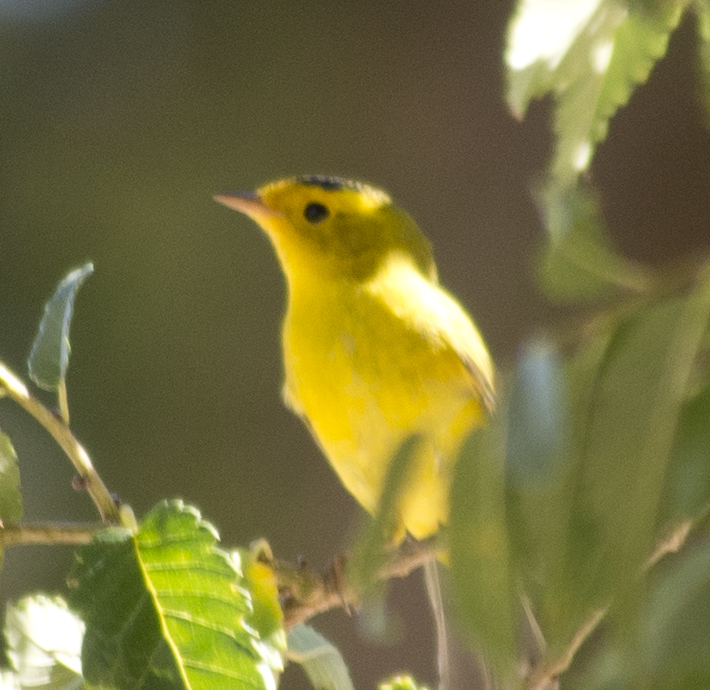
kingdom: Animalia
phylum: Chordata
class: Aves
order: Passeriformes
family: Parulidae
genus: Cardellina
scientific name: Cardellina pusilla
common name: Wilson's warbler
